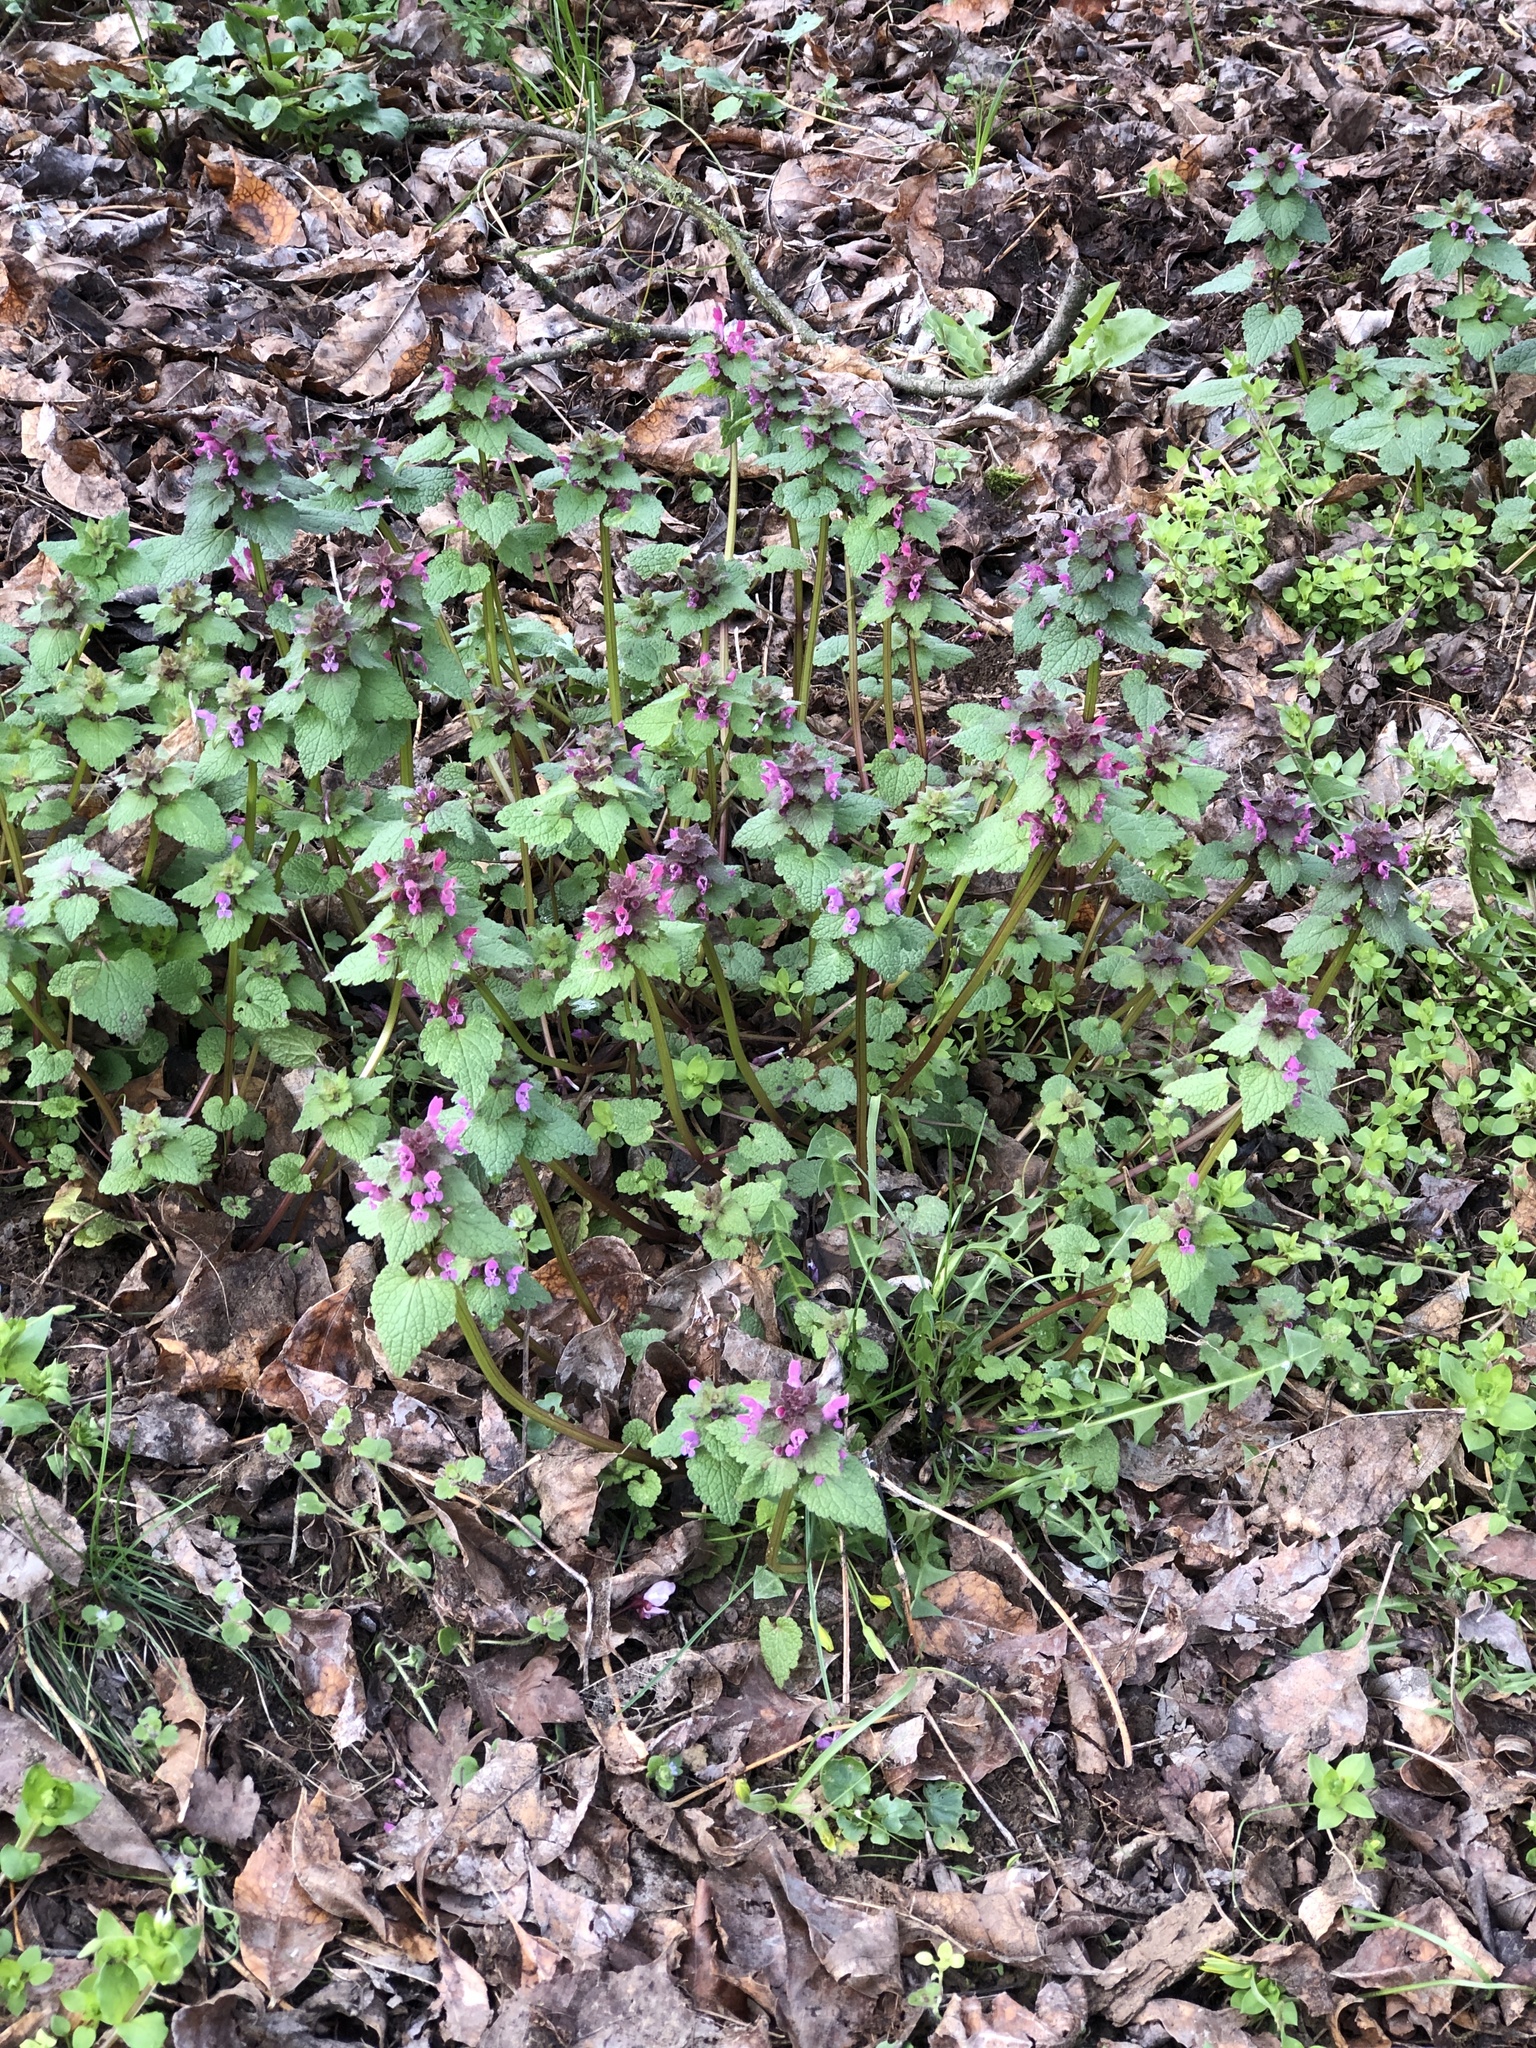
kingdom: Plantae
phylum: Tracheophyta
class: Magnoliopsida
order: Lamiales
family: Lamiaceae
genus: Lamium
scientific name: Lamium purpureum
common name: Red dead-nettle
